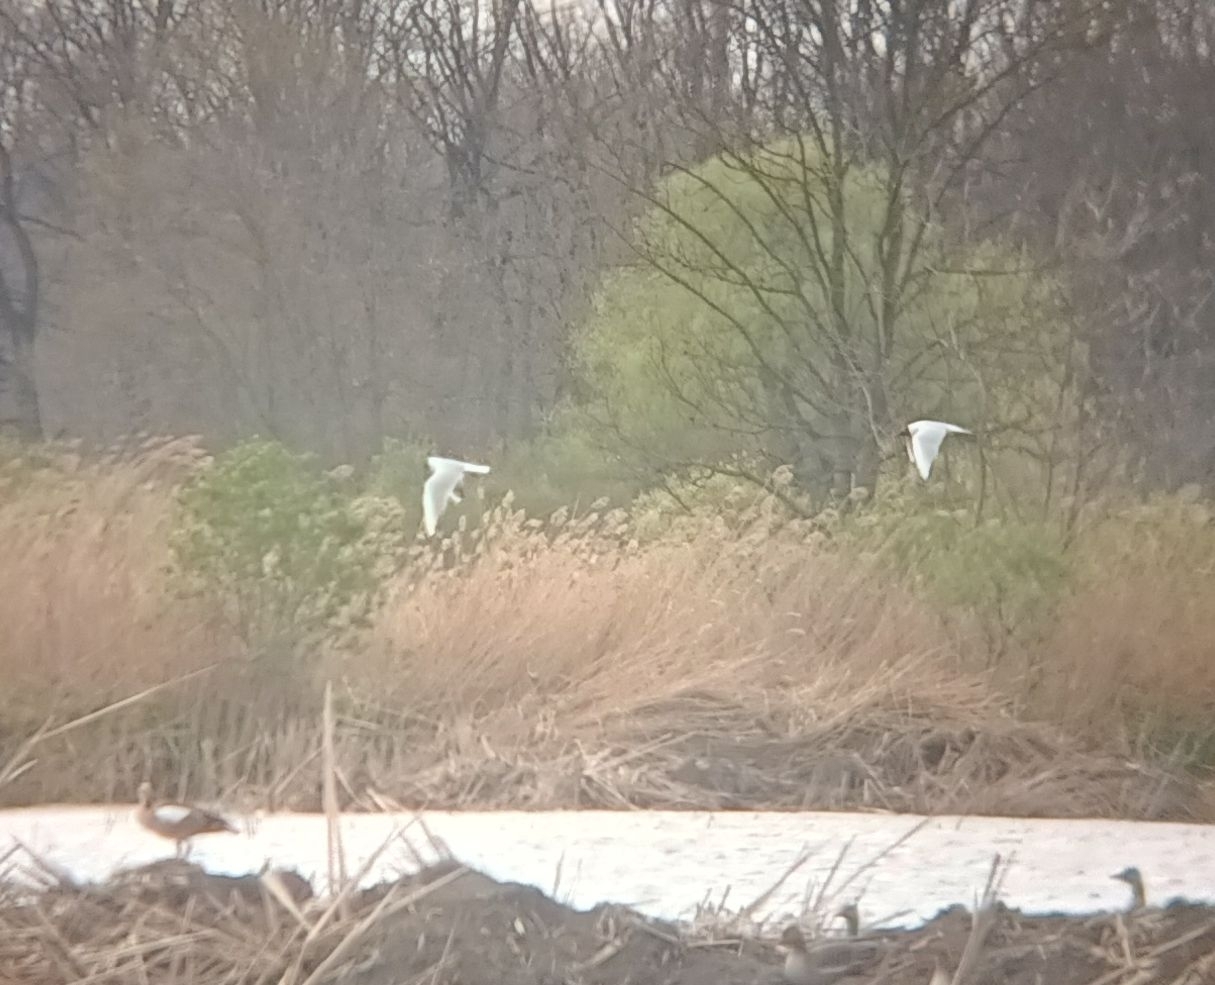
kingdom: Animalia
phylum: Chordata
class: Aves
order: Charadriiformes
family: Laridae
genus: Chroicocephalus
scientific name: Chroicocephalus ridibundus
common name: Black-headed gull
